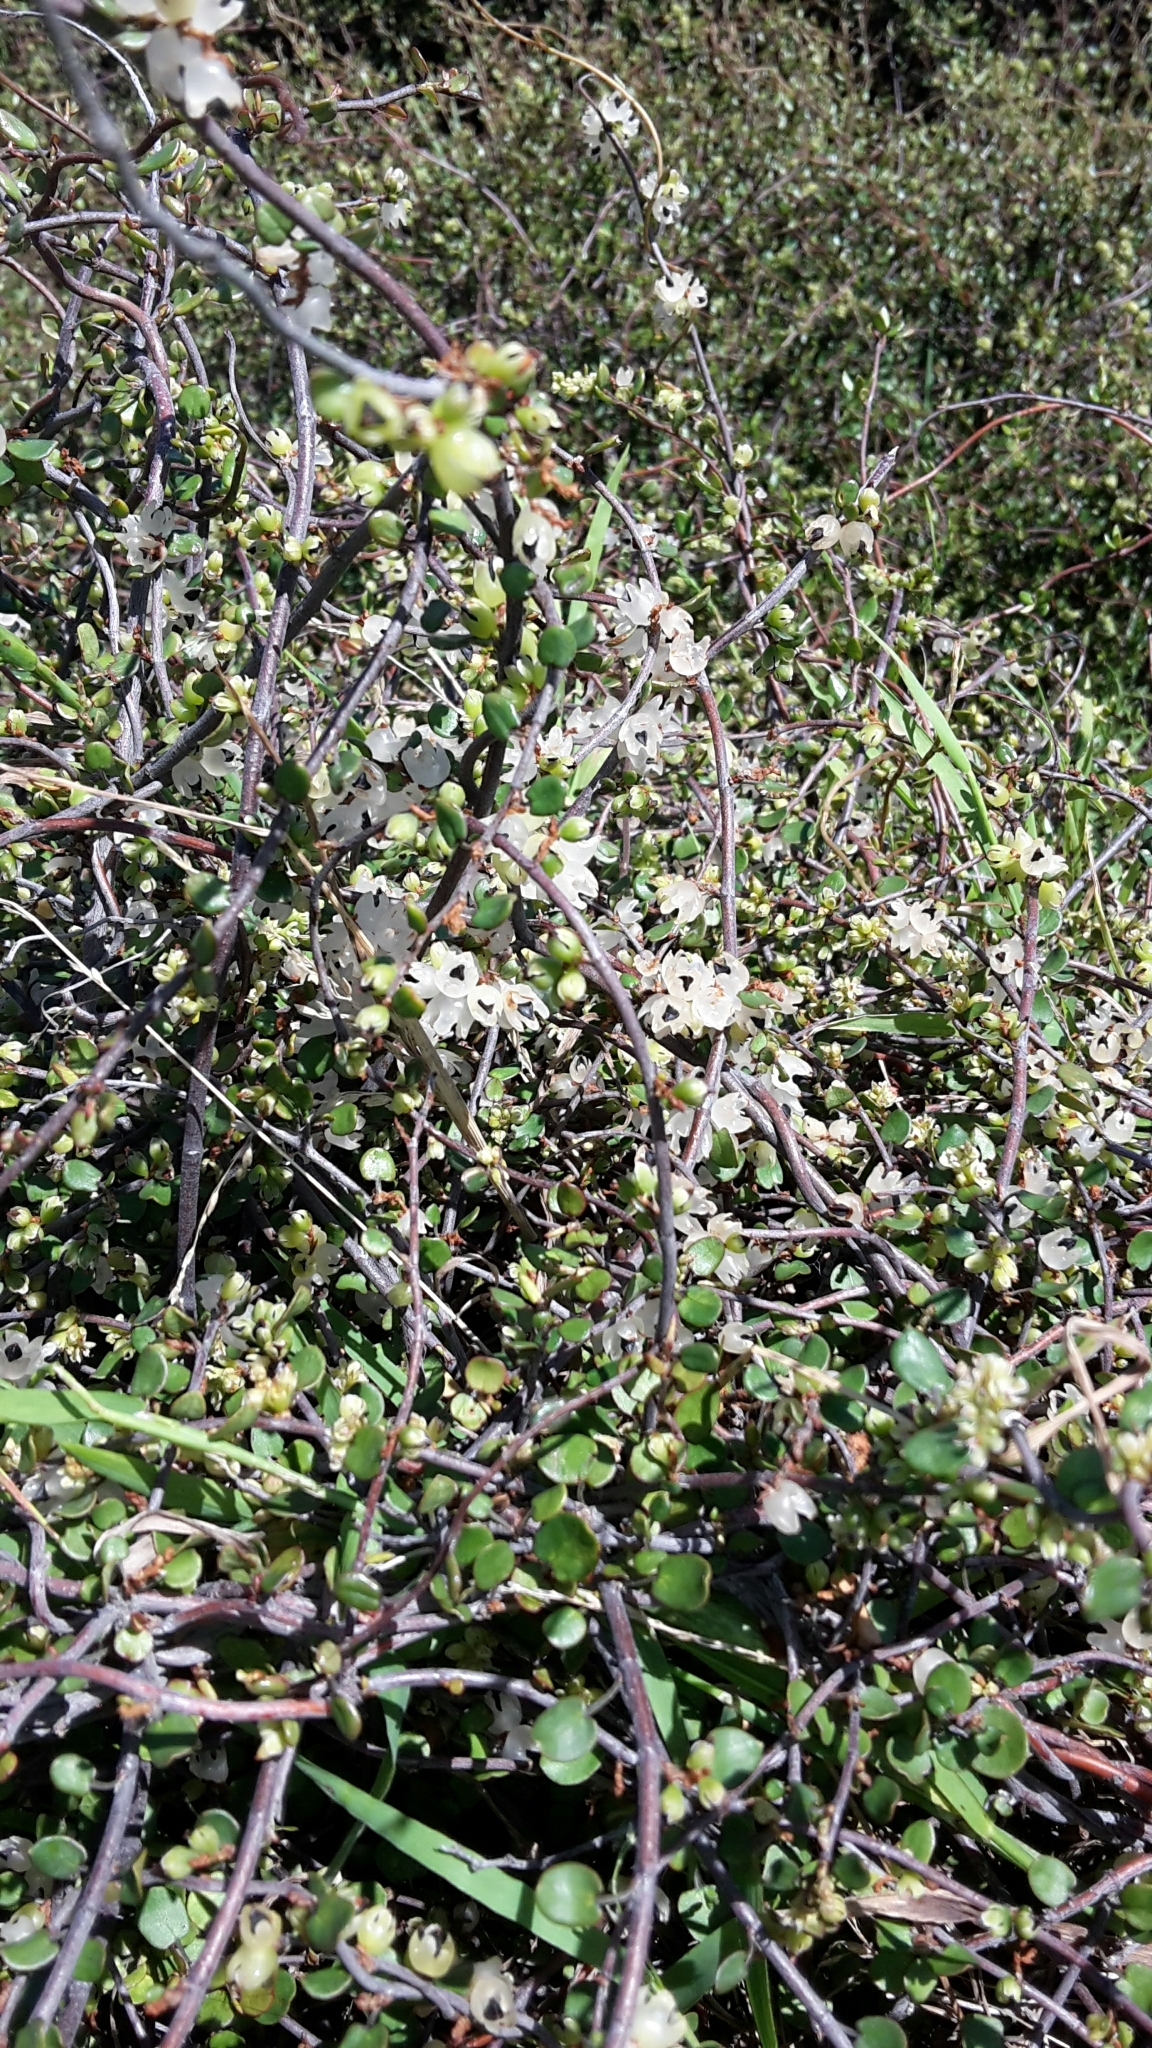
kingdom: Plantae
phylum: Tracheophyta
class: Magnoliopsida
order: Caryophyllales
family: Polygonaceae
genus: Muehlenbeckia
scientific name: Muehlenbeckia complexa
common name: Wireplant
